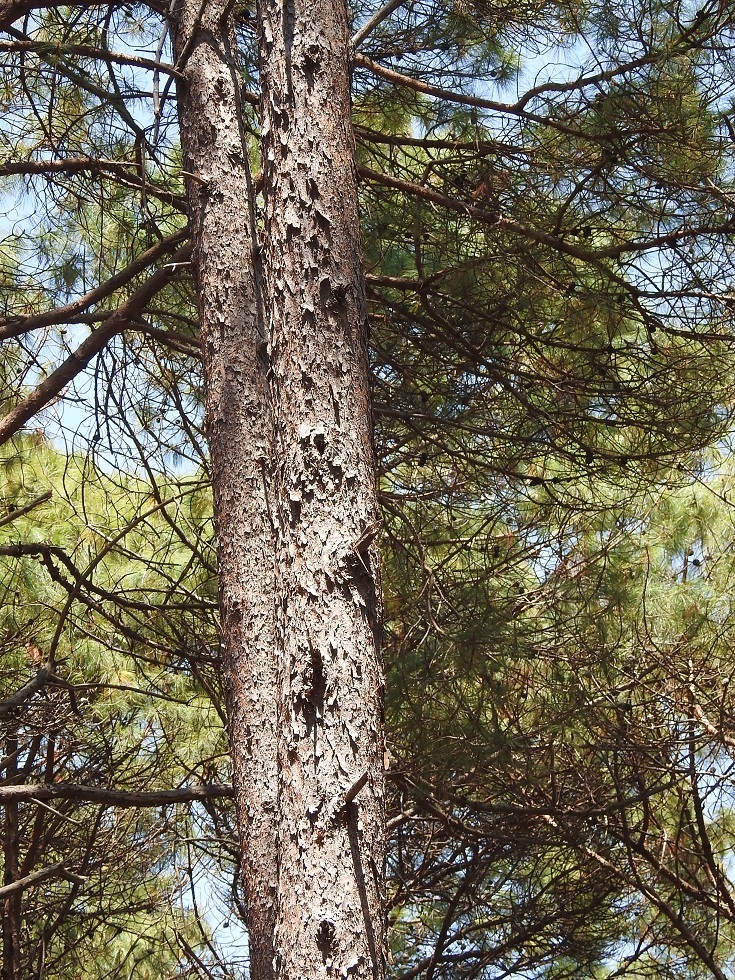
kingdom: Plantae
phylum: Tracheophyta
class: Pinopsida
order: Pinales
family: Pinaceae
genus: Pinus
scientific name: Pinus tecunumanii
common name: Schwerdtfeger's pine
